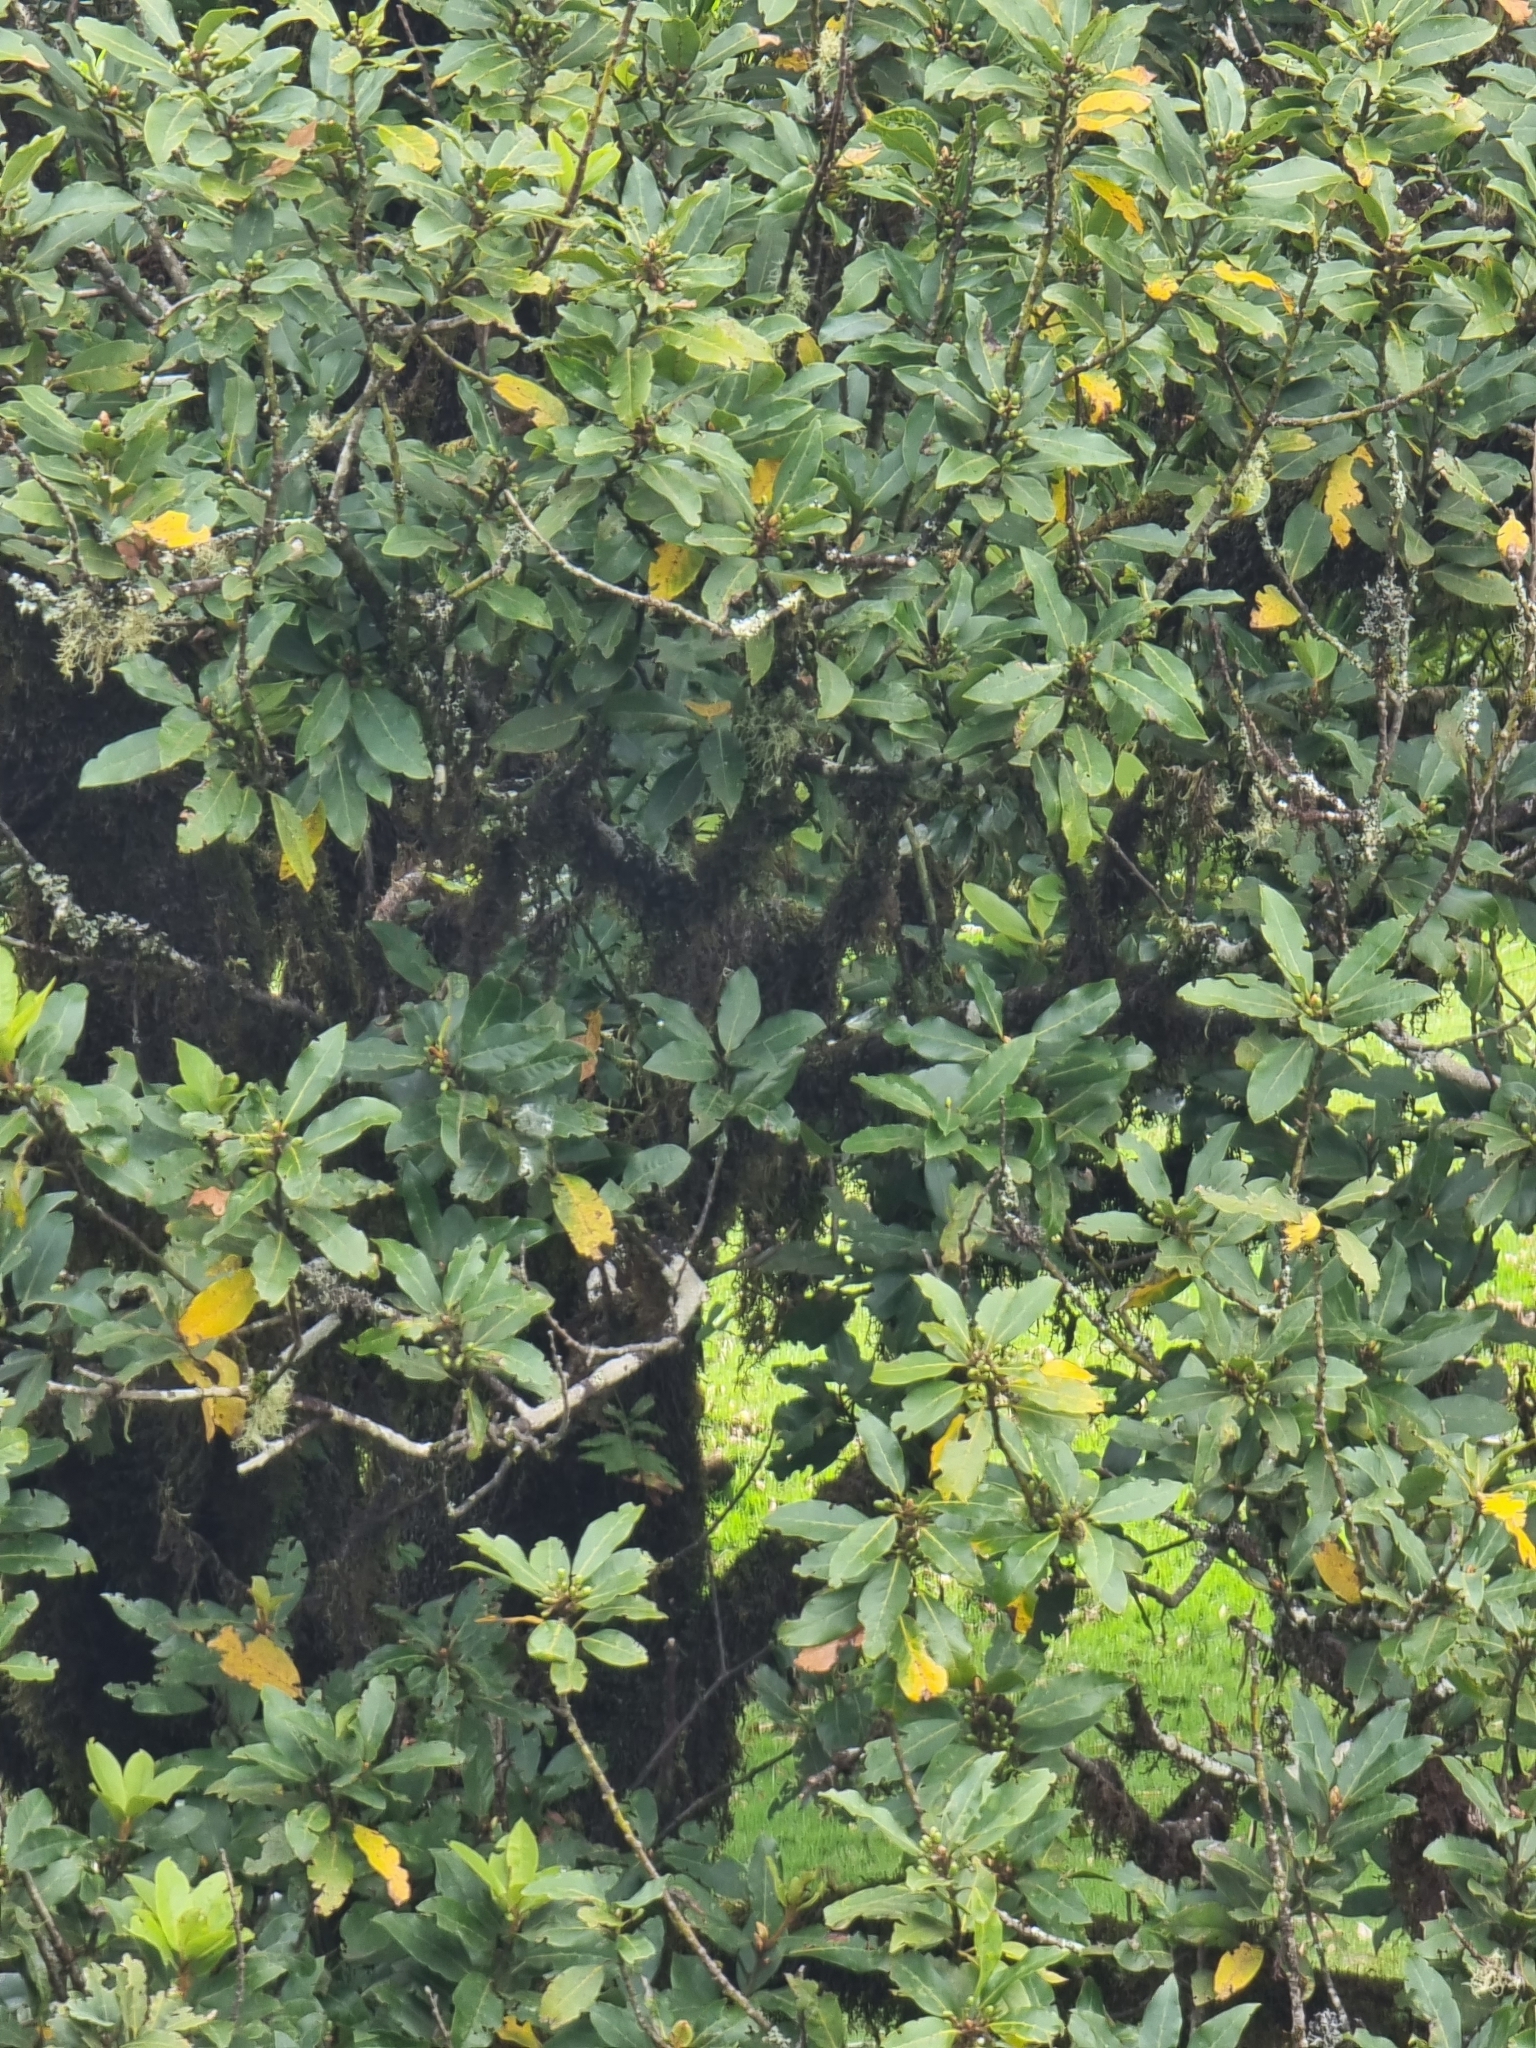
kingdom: Plantae
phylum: Tracheophyta
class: Magnoliopsida
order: Laurales
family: Lauraceae
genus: Laurus
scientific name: Laurus novocanariensis
